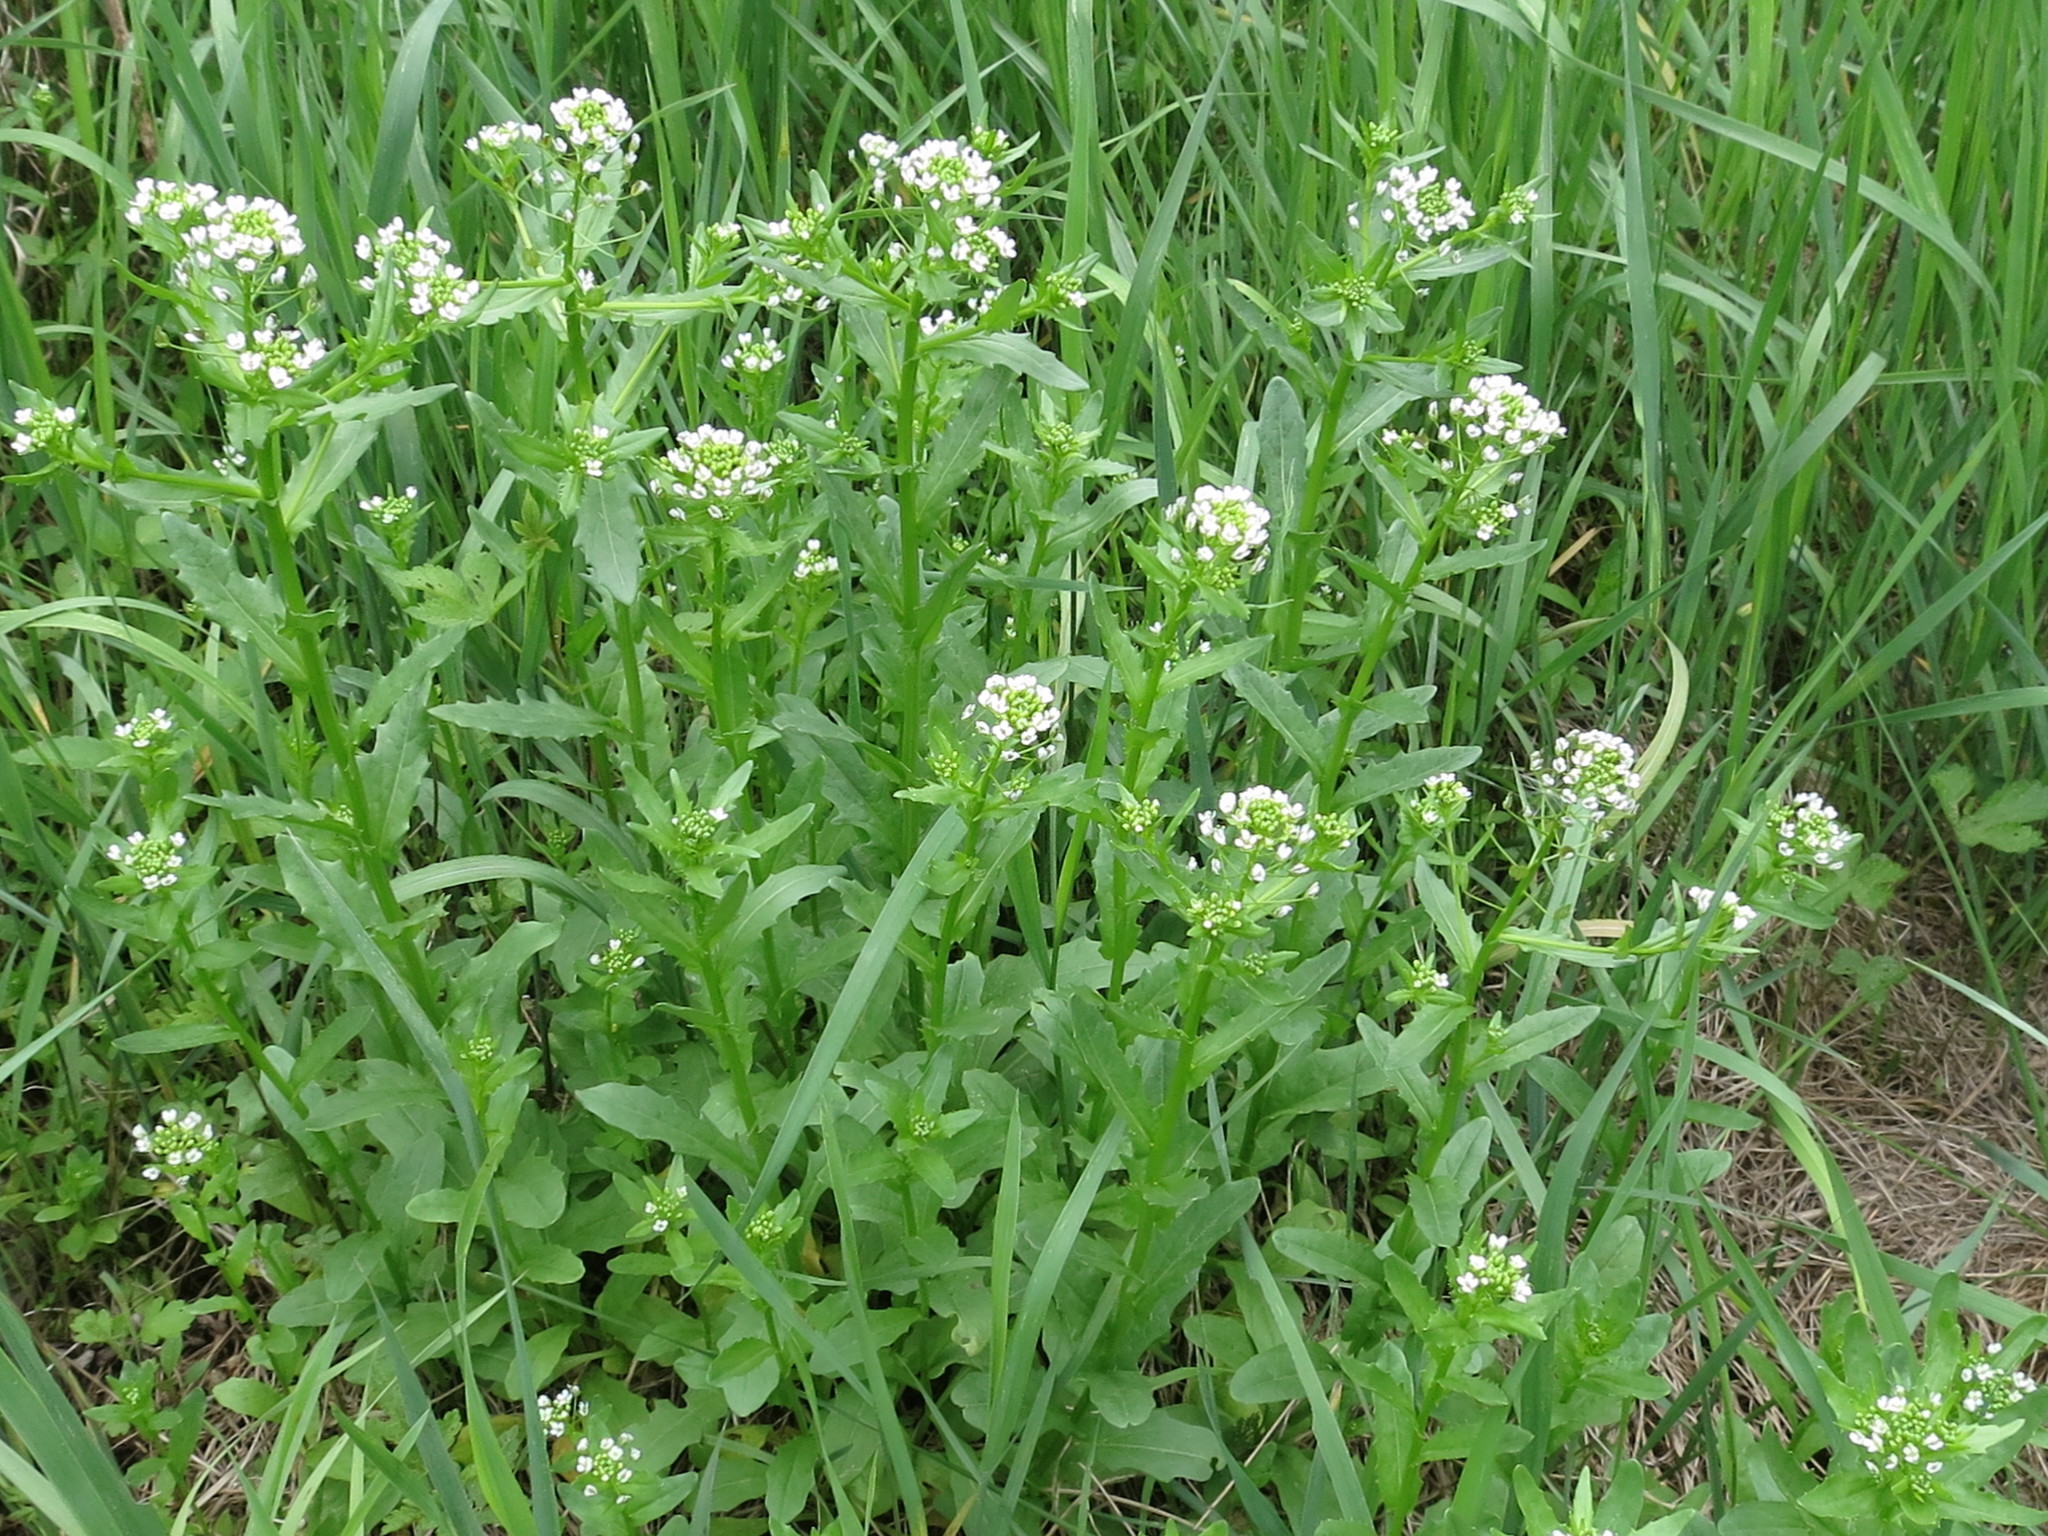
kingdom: Plantae
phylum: Tracheophyta
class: Magnoliopsida
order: Brassicales
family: Brassicaceae
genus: Thlaspi
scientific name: Thlaspi arvense
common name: Field pennycress
